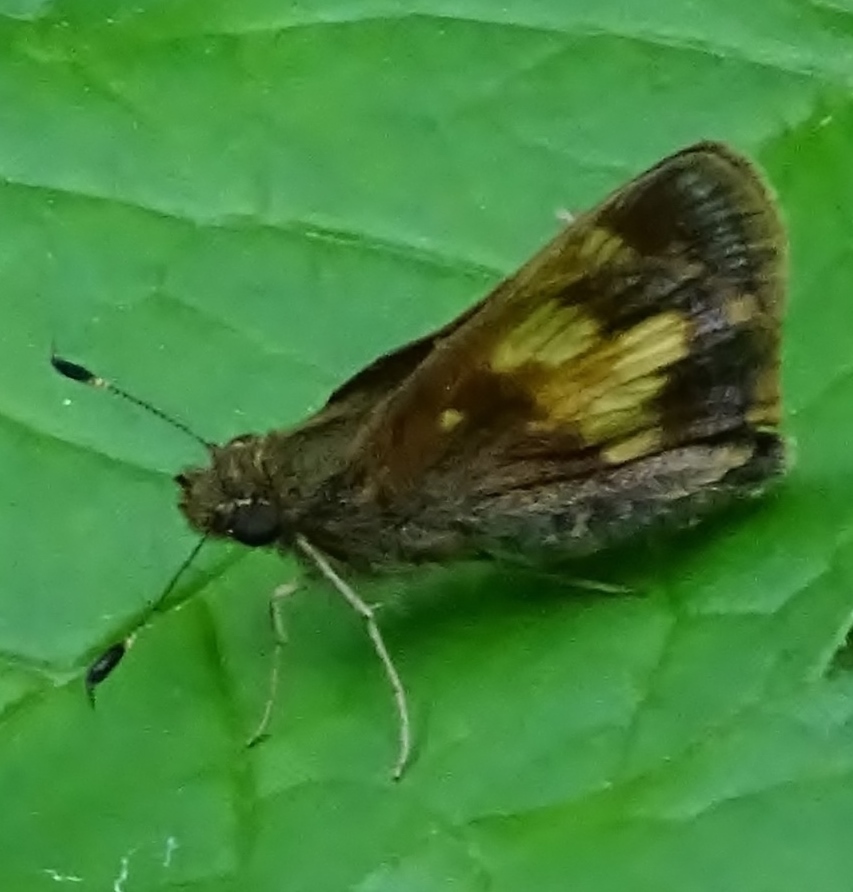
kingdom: Animalia
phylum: Arthropoda
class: Insecta
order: Lepidoptera
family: Hesperiidae
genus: Lon
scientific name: Lon hobomok
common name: Hobomok skipper
